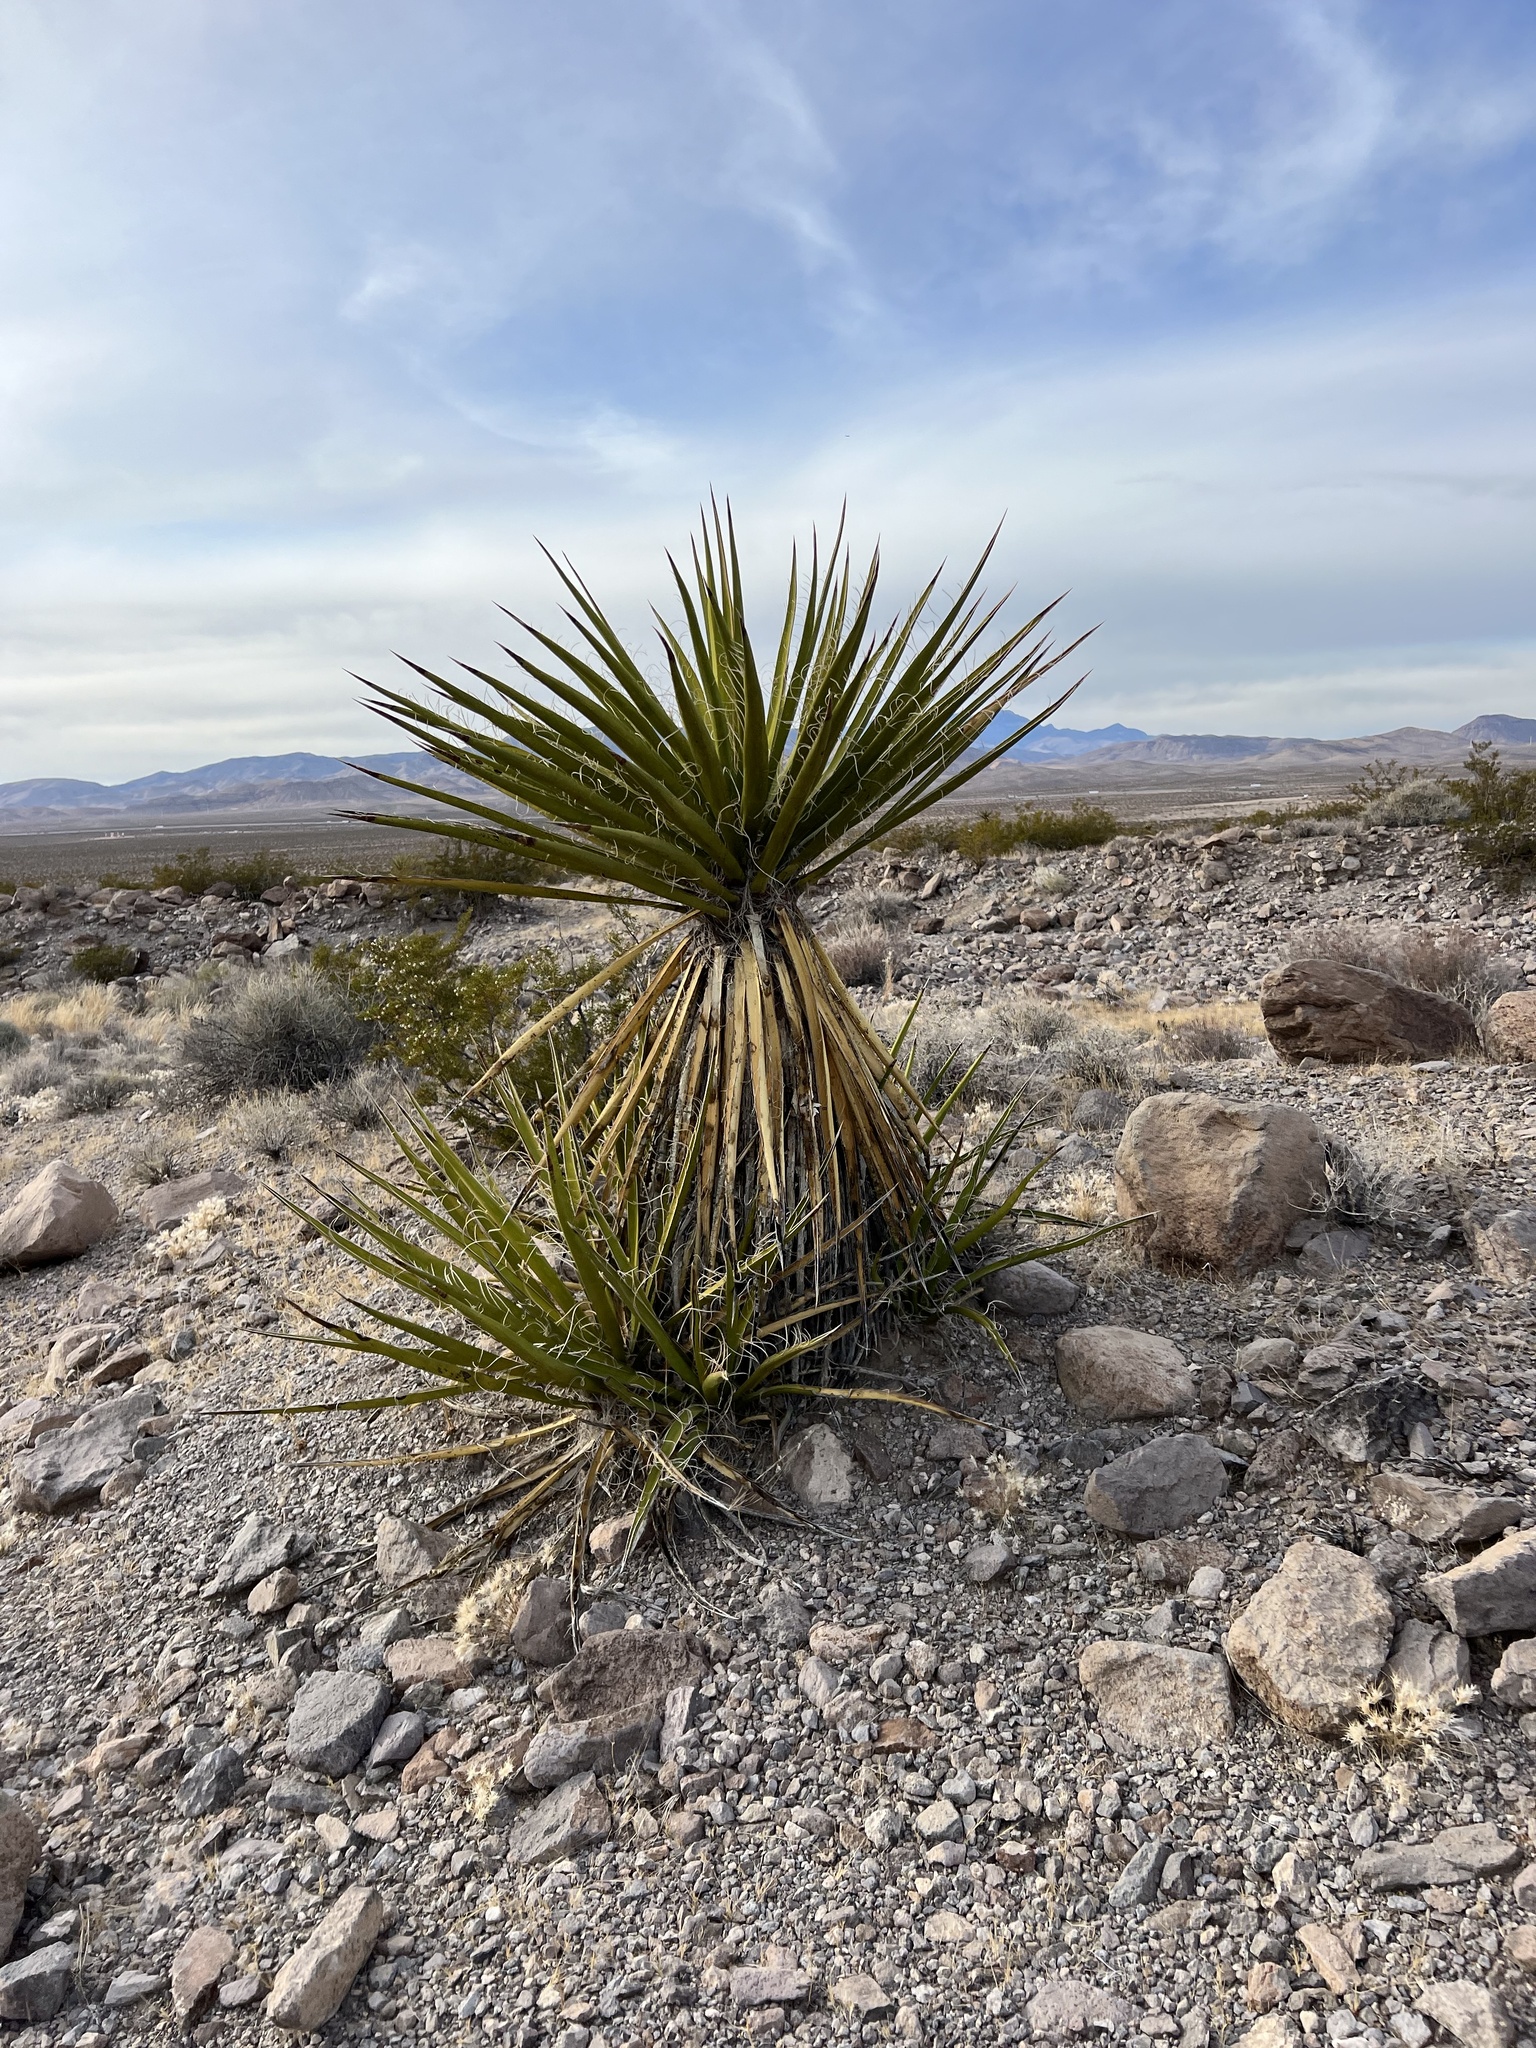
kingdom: Plantae
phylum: Tracheophyta
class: Liliopsida
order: Asparagales
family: Asparagaceae
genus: Yucca
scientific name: Yucca schidigera
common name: Mojave yucca
